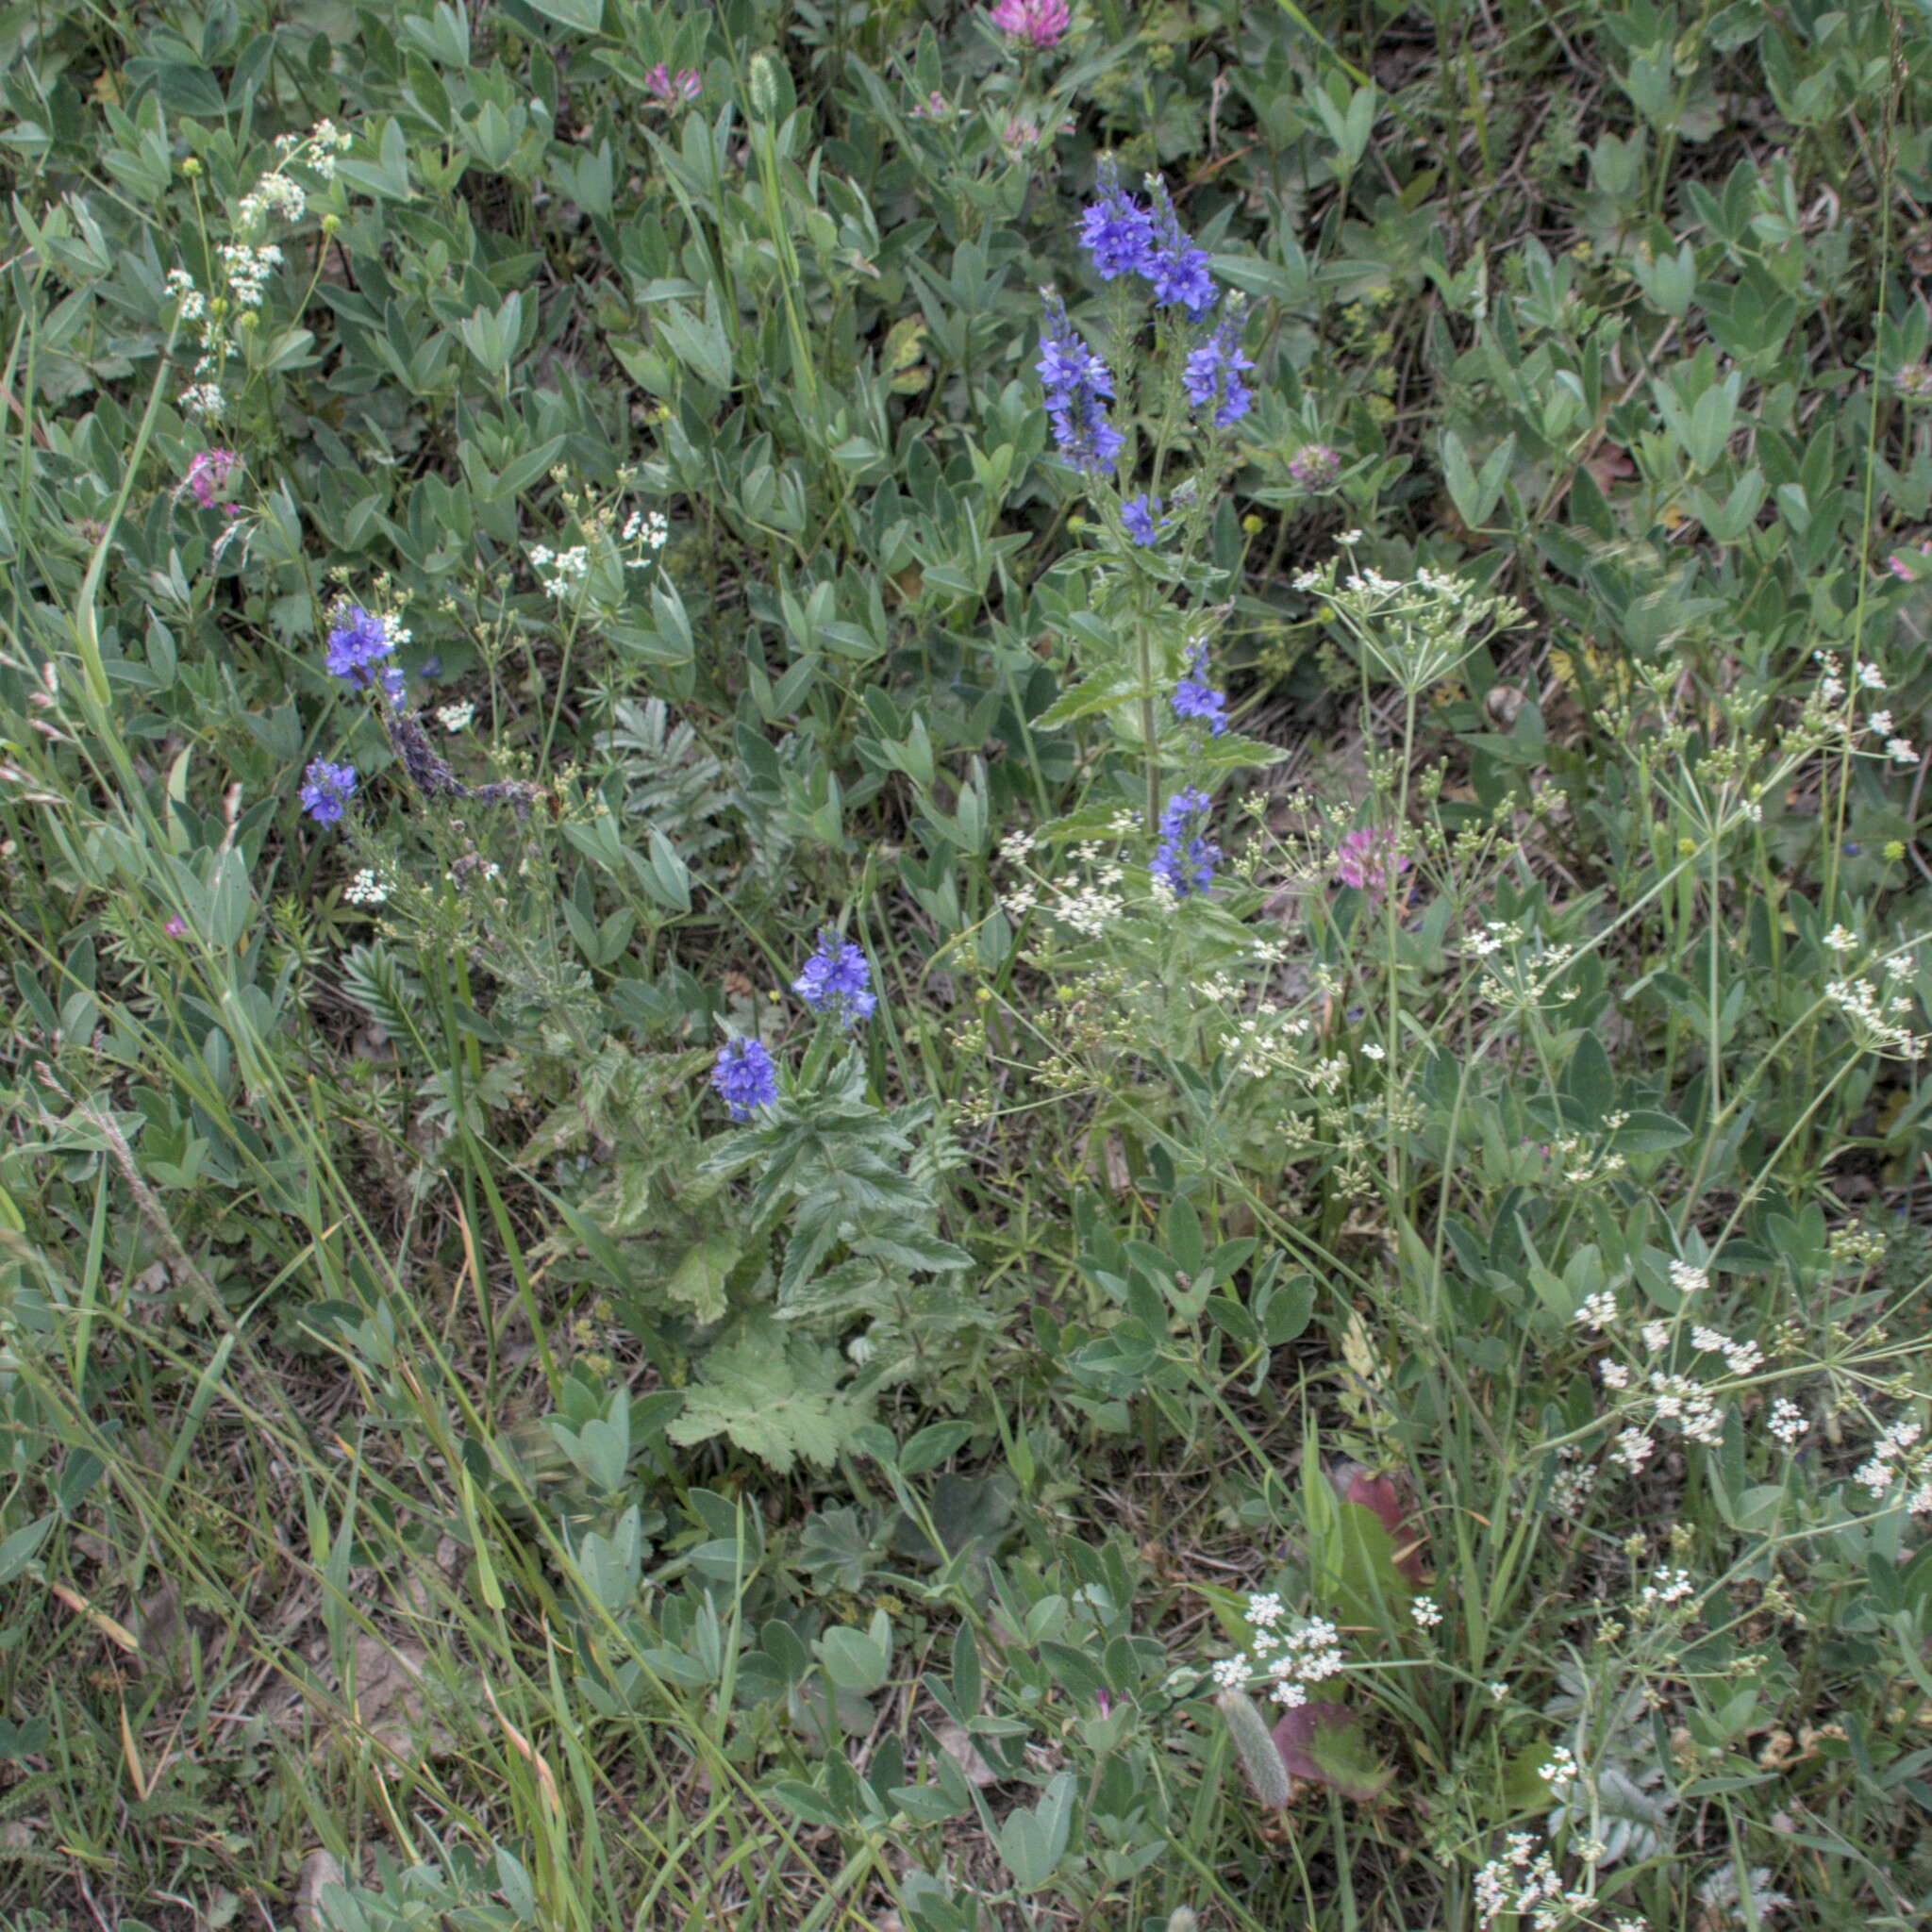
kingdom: Plantae
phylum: Tracheophyta
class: Magnoliopsida
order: Lamiales
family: Plantaginaceae
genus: Veronica
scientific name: Veronica teucrium
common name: Large speedwell
